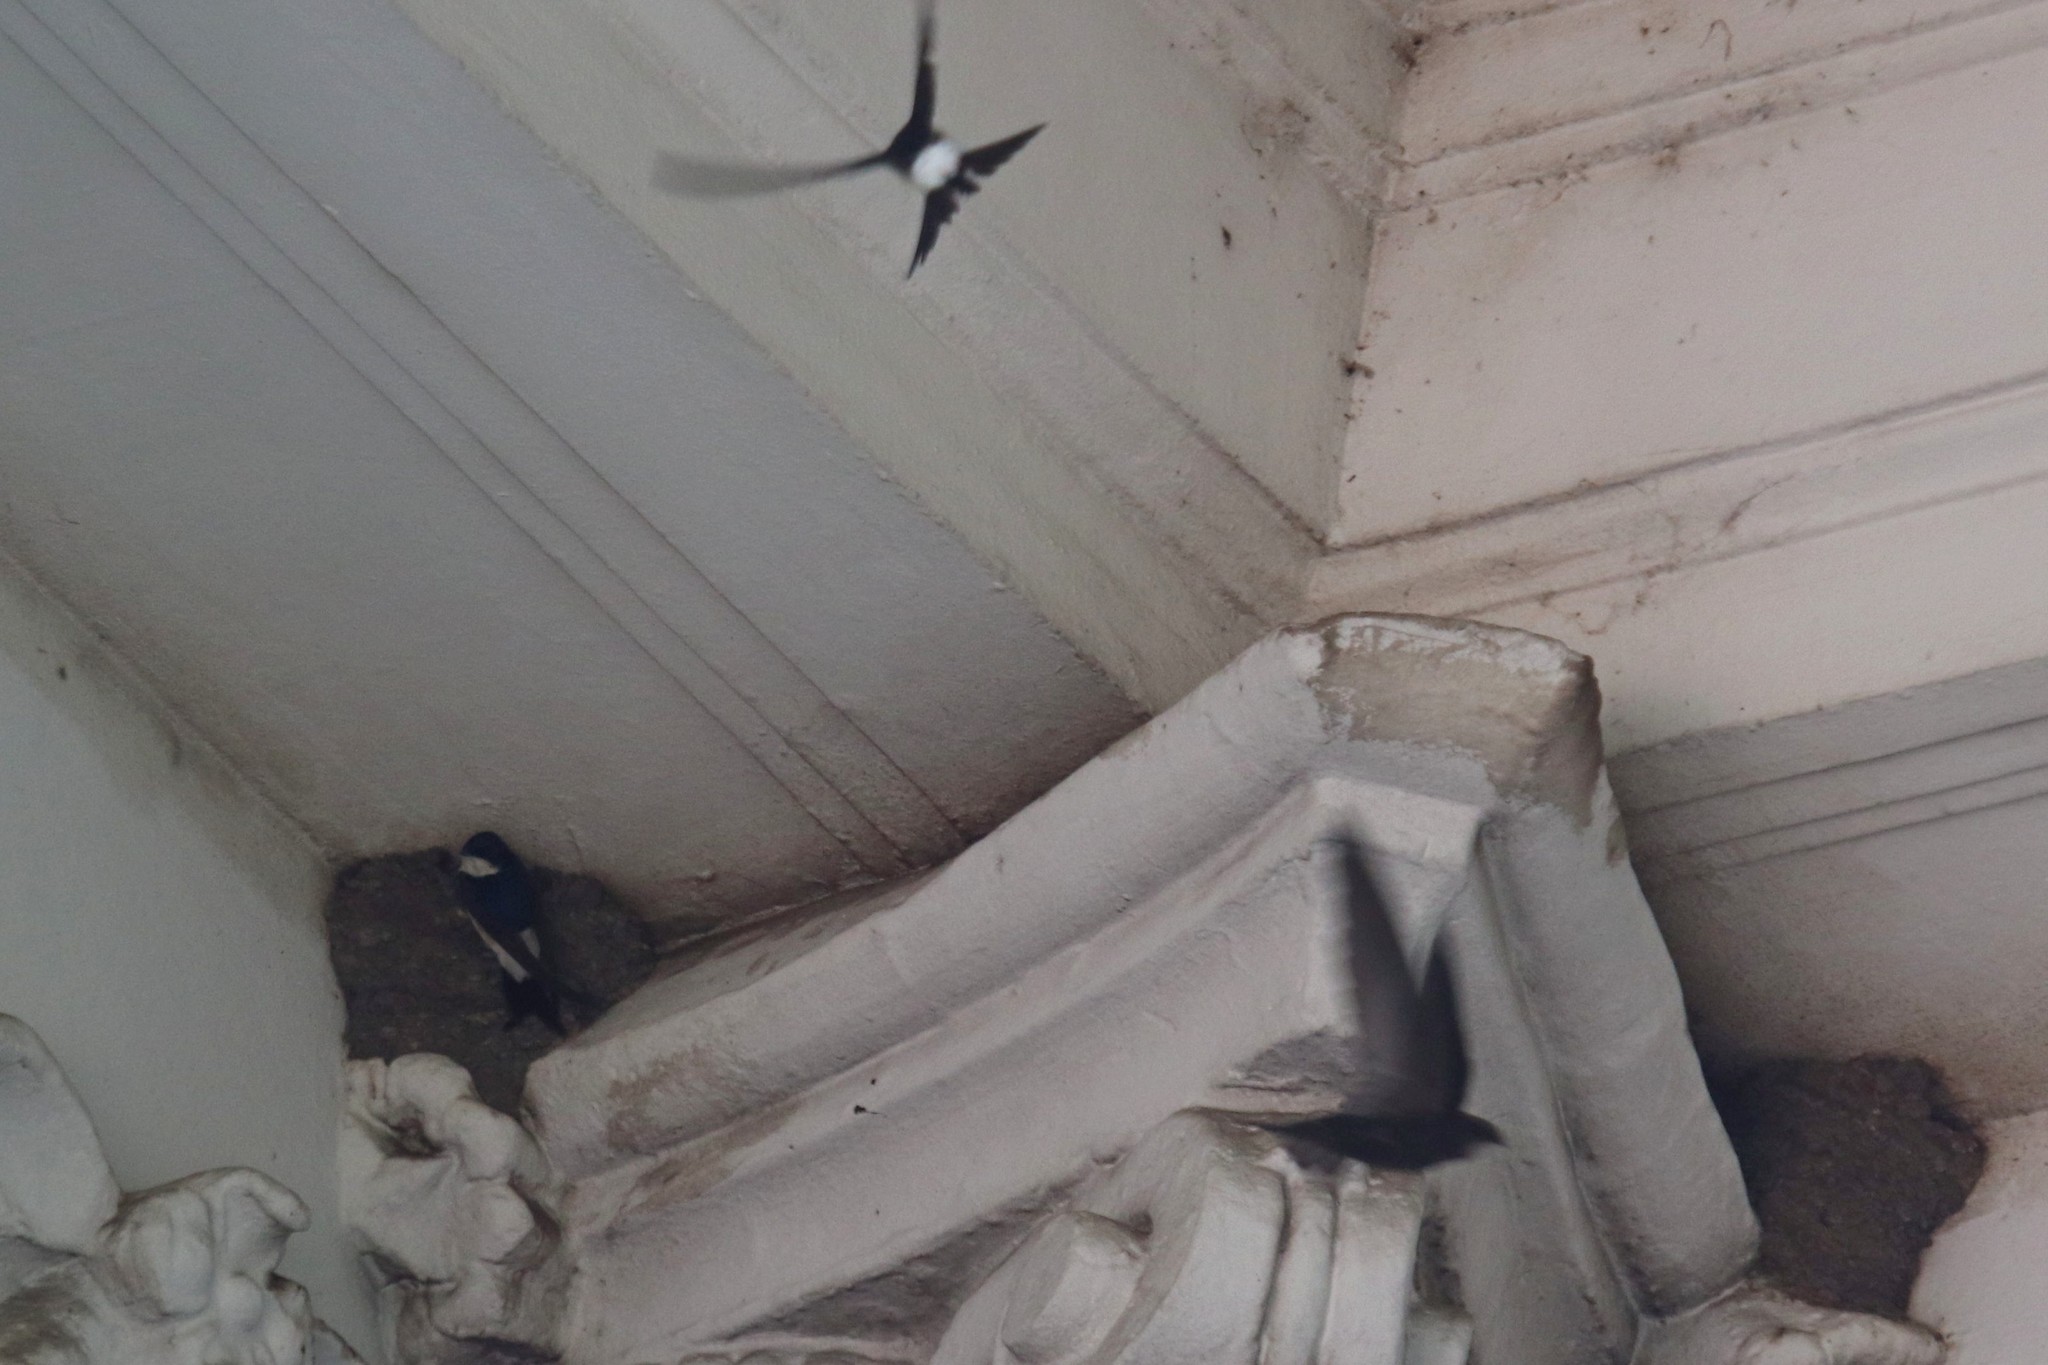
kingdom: Animalia
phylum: Chordata
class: Aves
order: Passeriformes
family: Hirundinidae
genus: Delichon
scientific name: Delichon urbicum
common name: Common house martin
